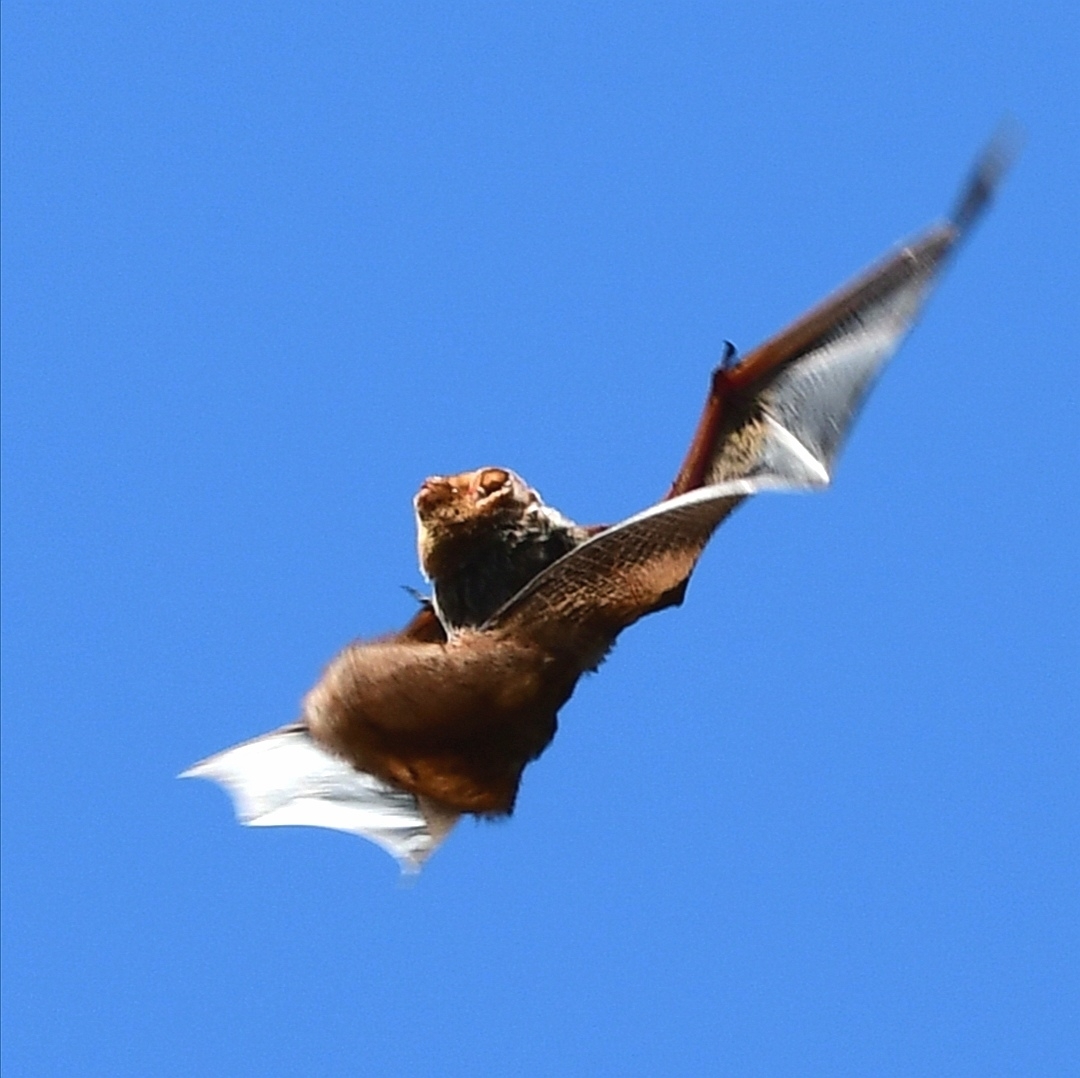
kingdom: Animalia
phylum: Chordata
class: Mammalia
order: Chiroptera
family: Vespertilionidae
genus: Lasiurus
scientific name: Lasiurus borealis
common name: Eastern red bat
